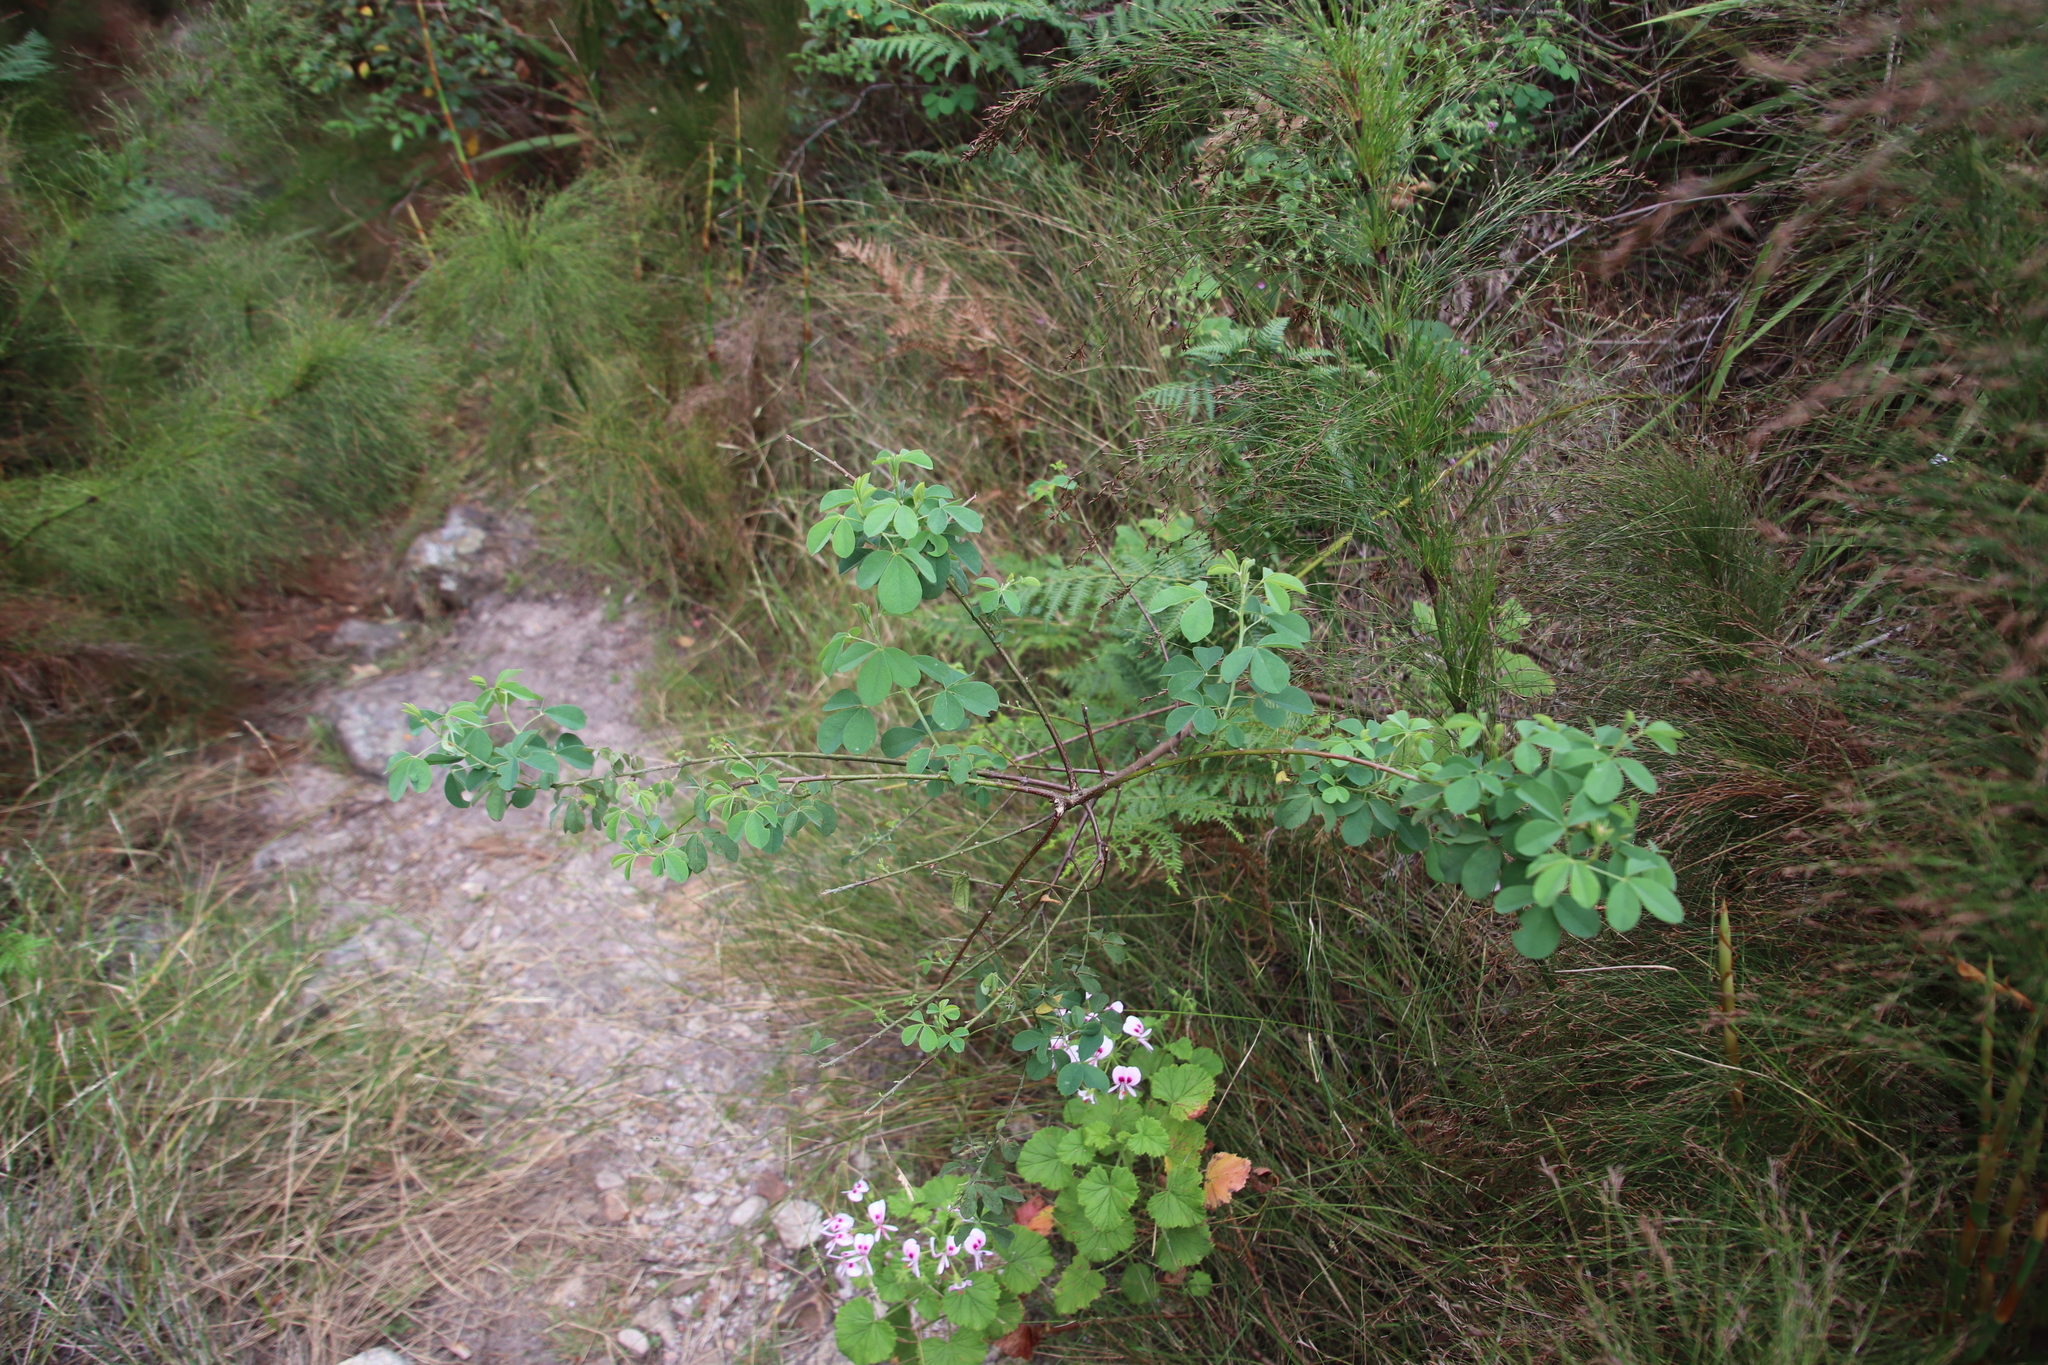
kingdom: Plantae
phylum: Tracheophyta
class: Magnoliopsida
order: Fabales
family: Fabaceae
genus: Hypocalyptus
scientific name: Hypocalyptus oxalidifolius
